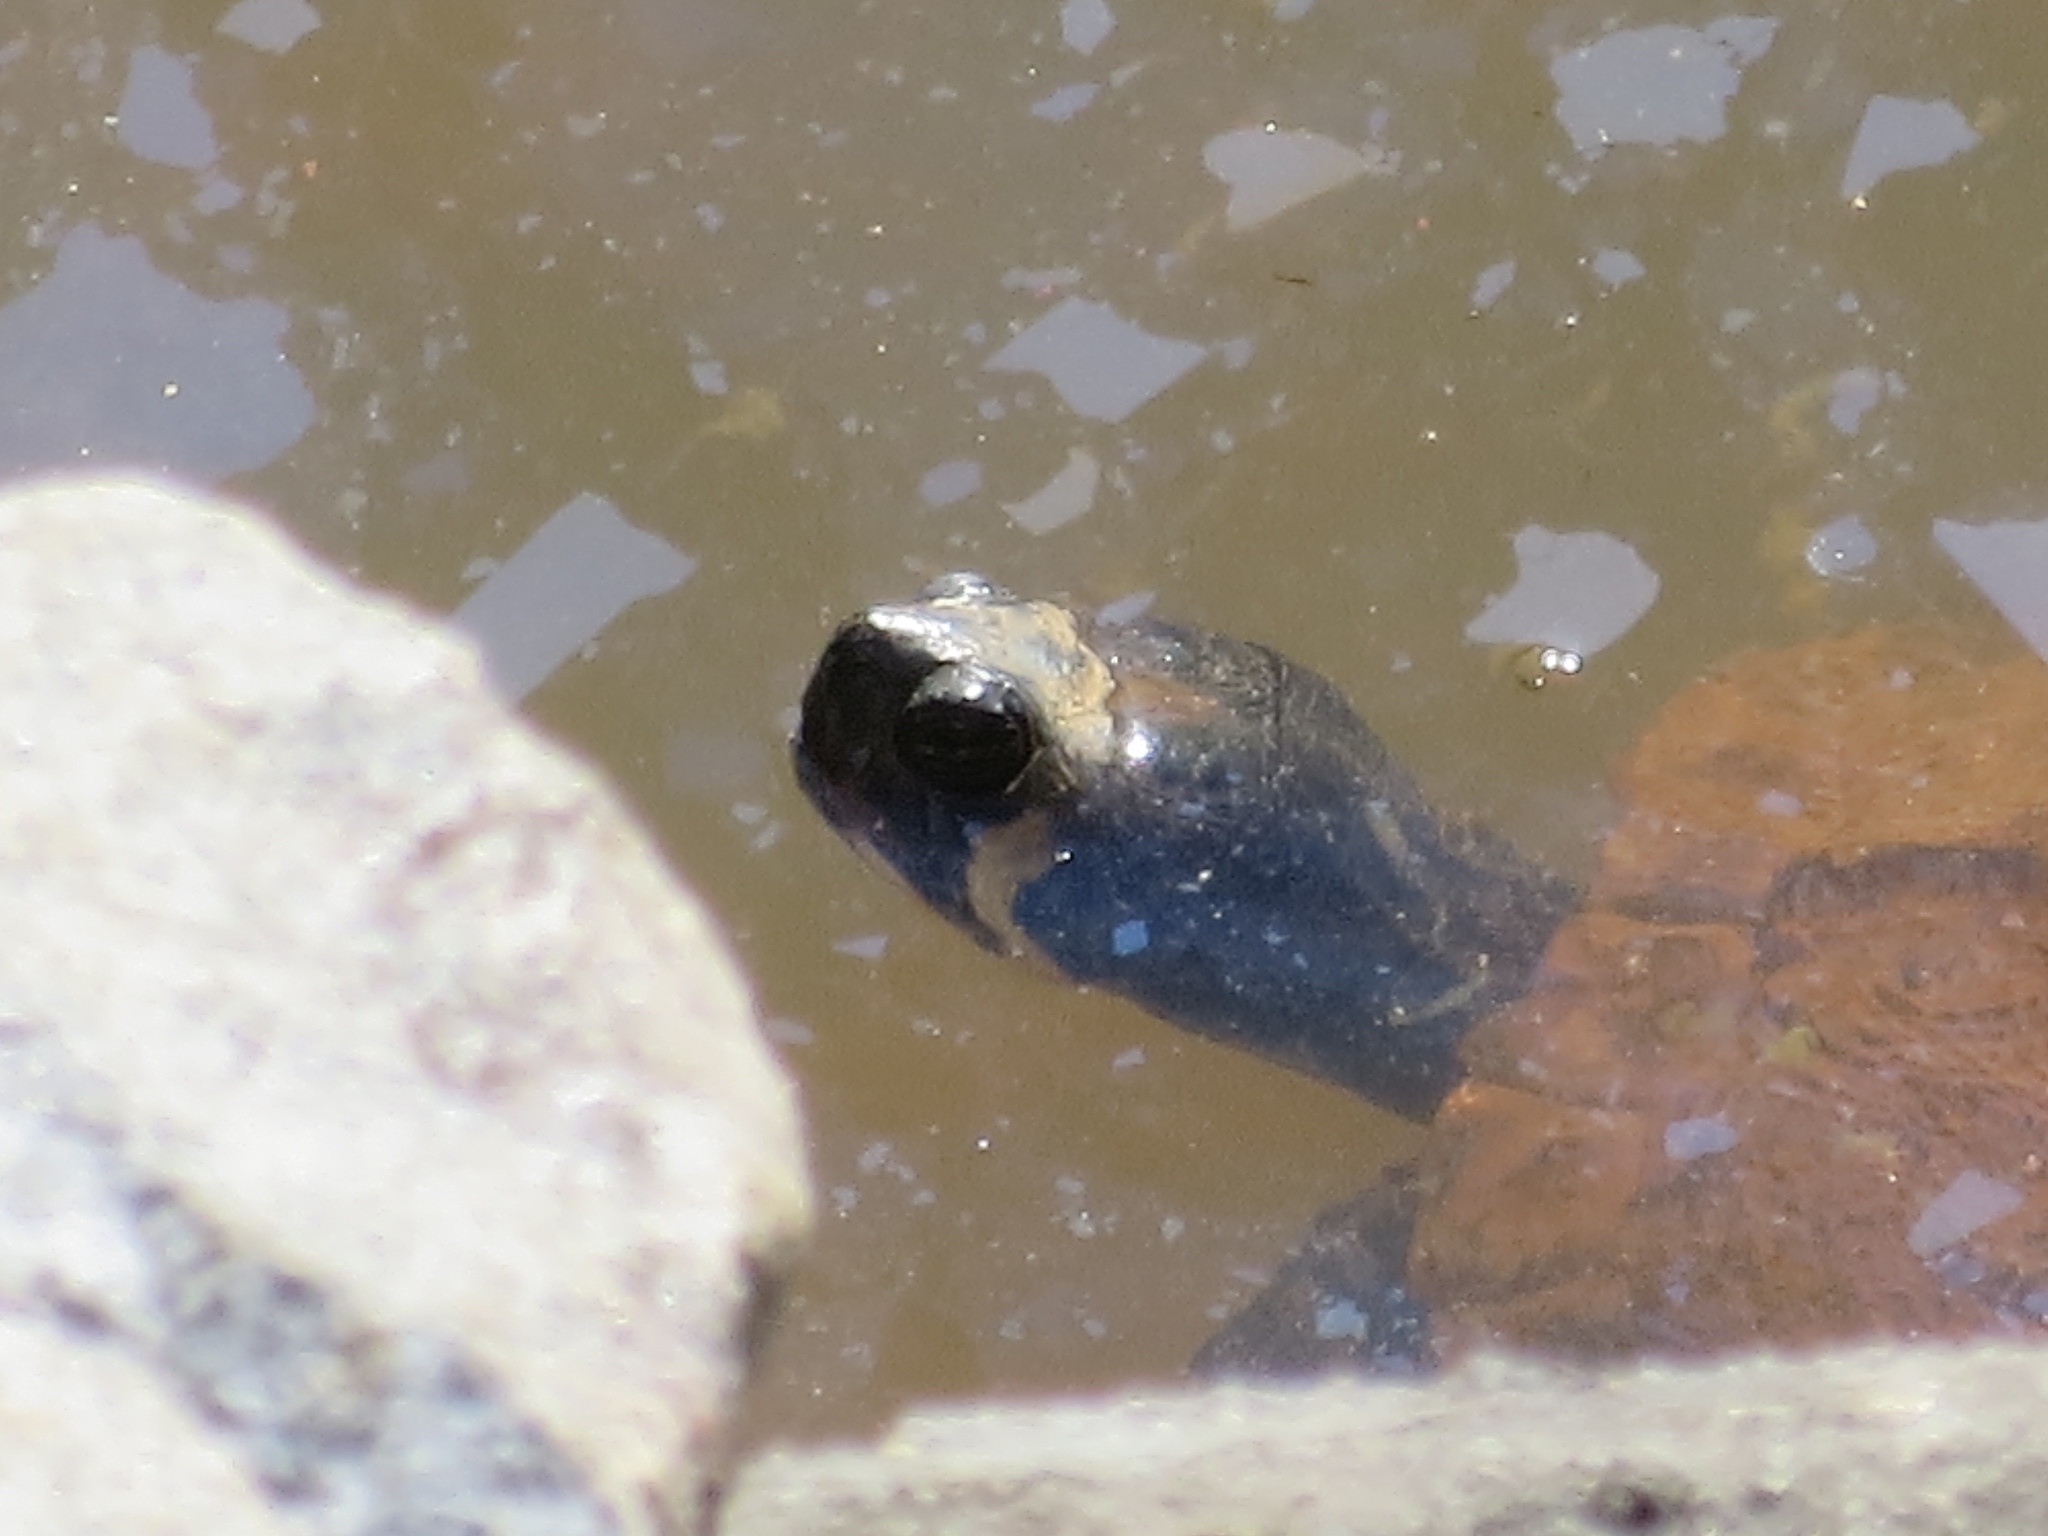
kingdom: Animalia
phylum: Chordata
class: Testudines
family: Emydidae
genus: Trachemys
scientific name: Trachemys scripta
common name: Slider
